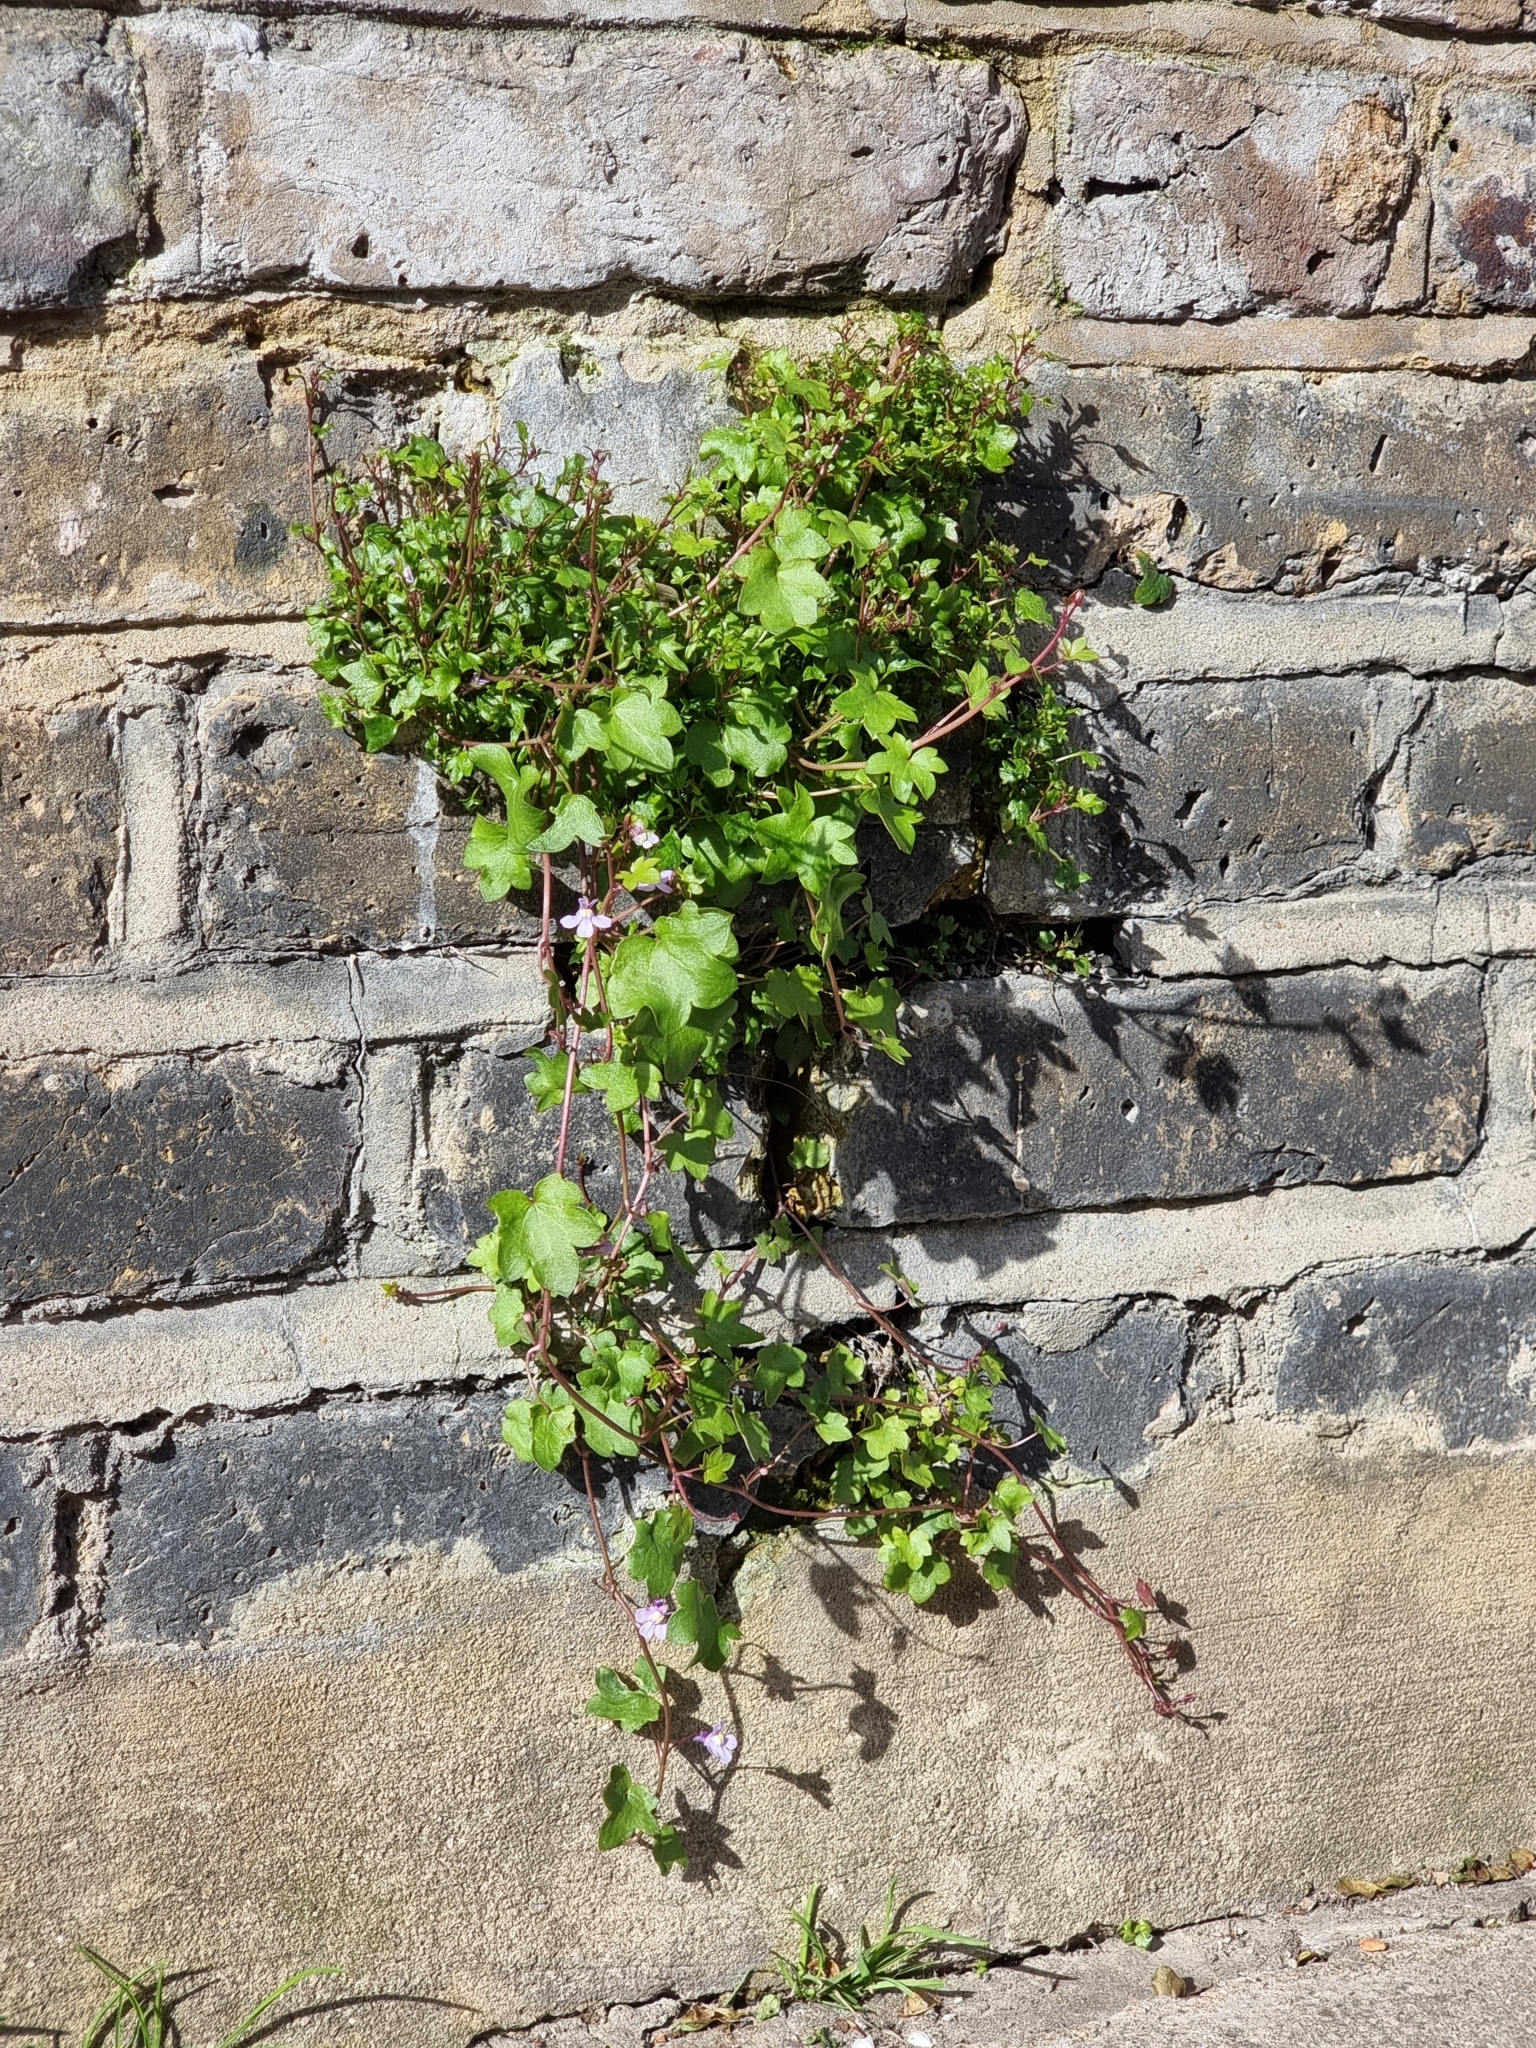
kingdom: Plantae
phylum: Tracheophyta
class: Magnoliopsida
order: Lamiales
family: Plantaginaceae
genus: Cymbalaria
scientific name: Cymbalaria muralis
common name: Ivy-leaved toadflax
